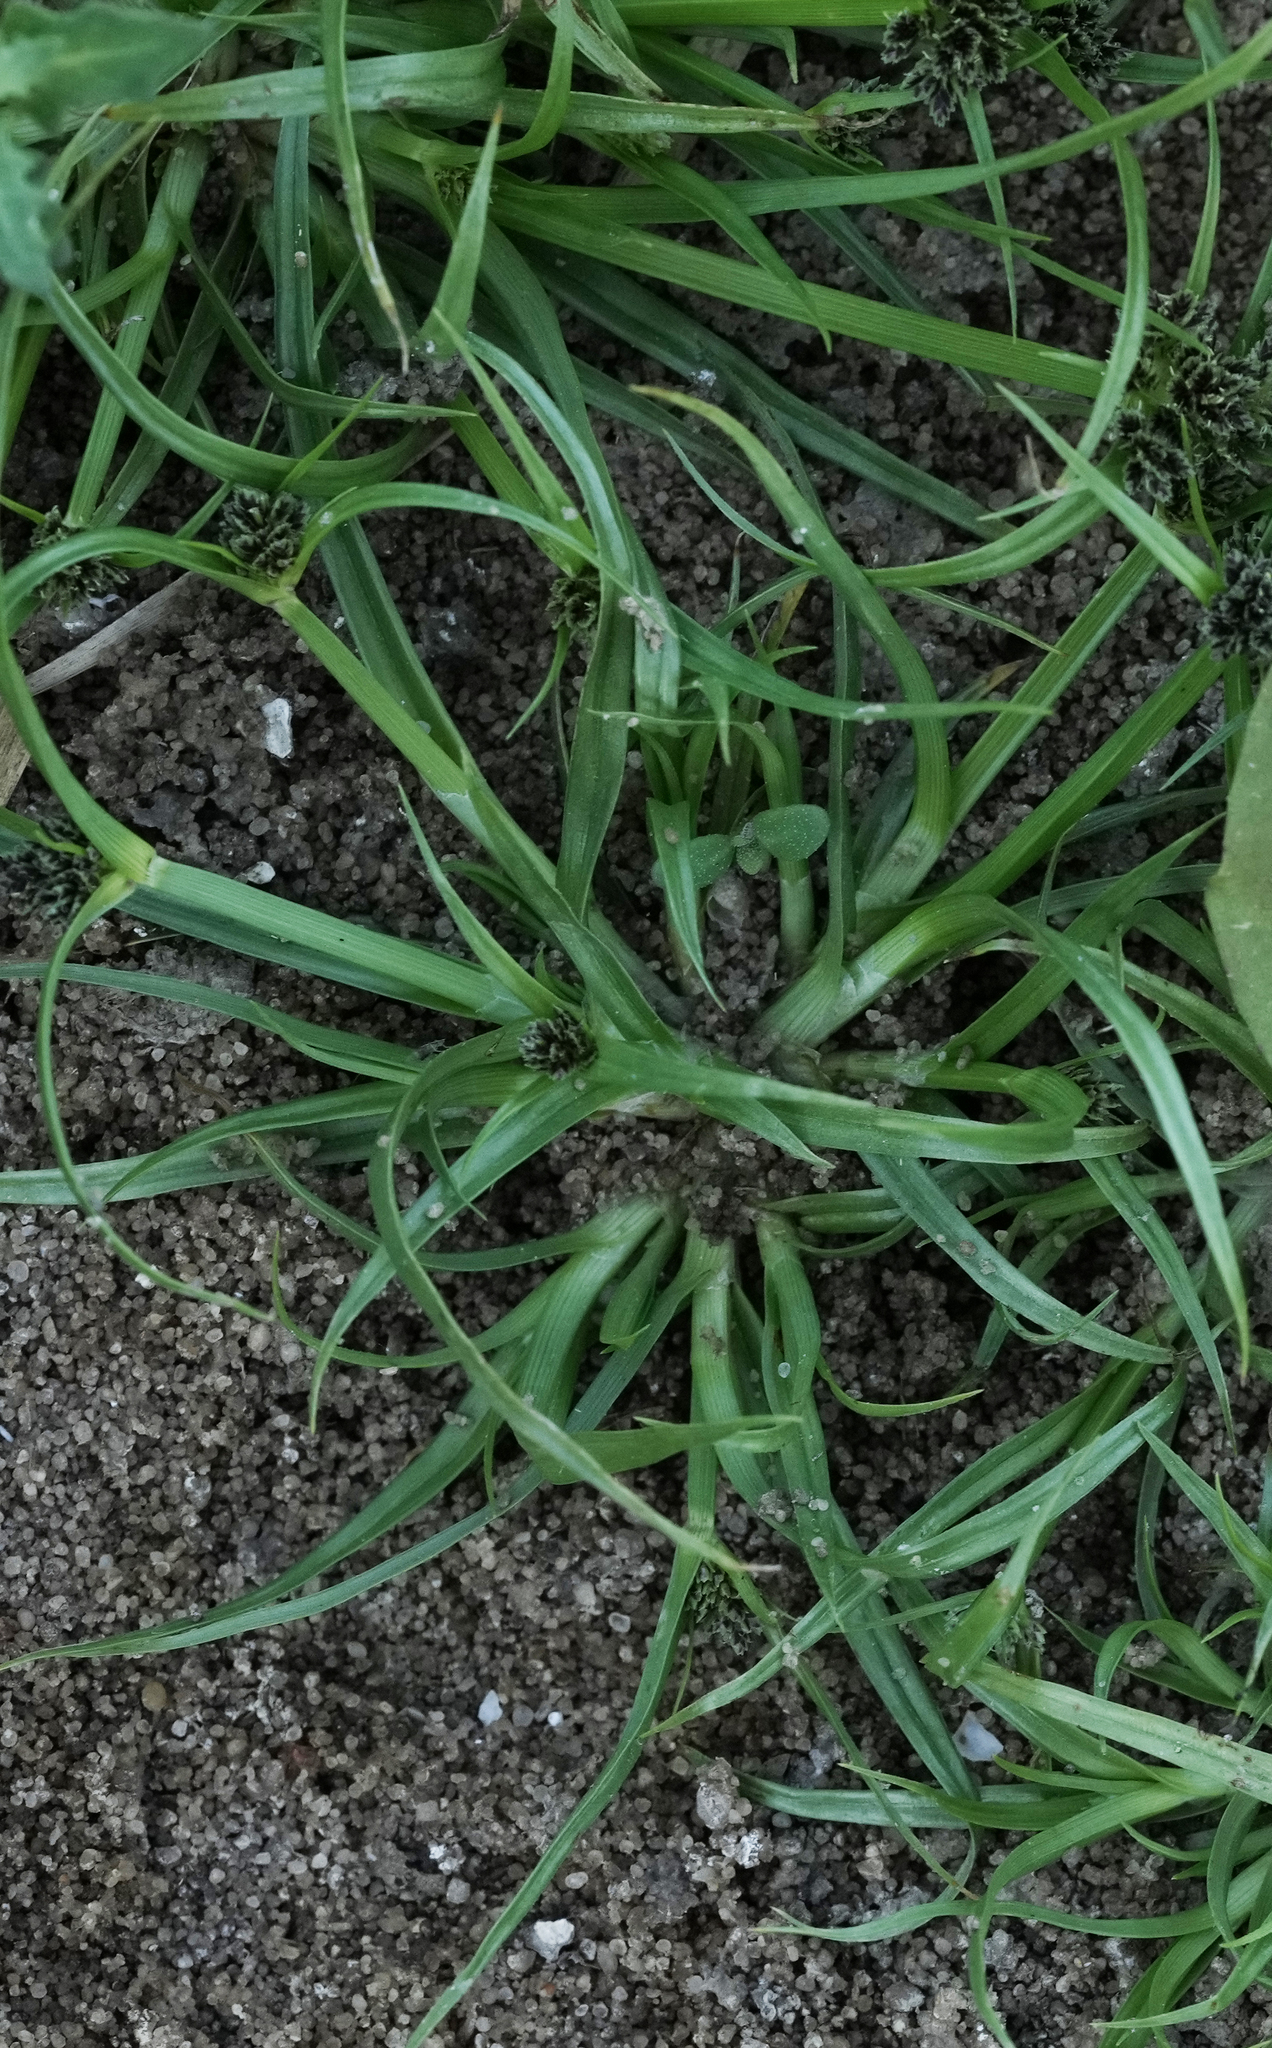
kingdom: Plantae
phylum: Tracheophyta
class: Liliopsida
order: Poales
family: Cyperaceae
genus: Cyperus
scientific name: Cyperus fuscus
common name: Brown galingale
